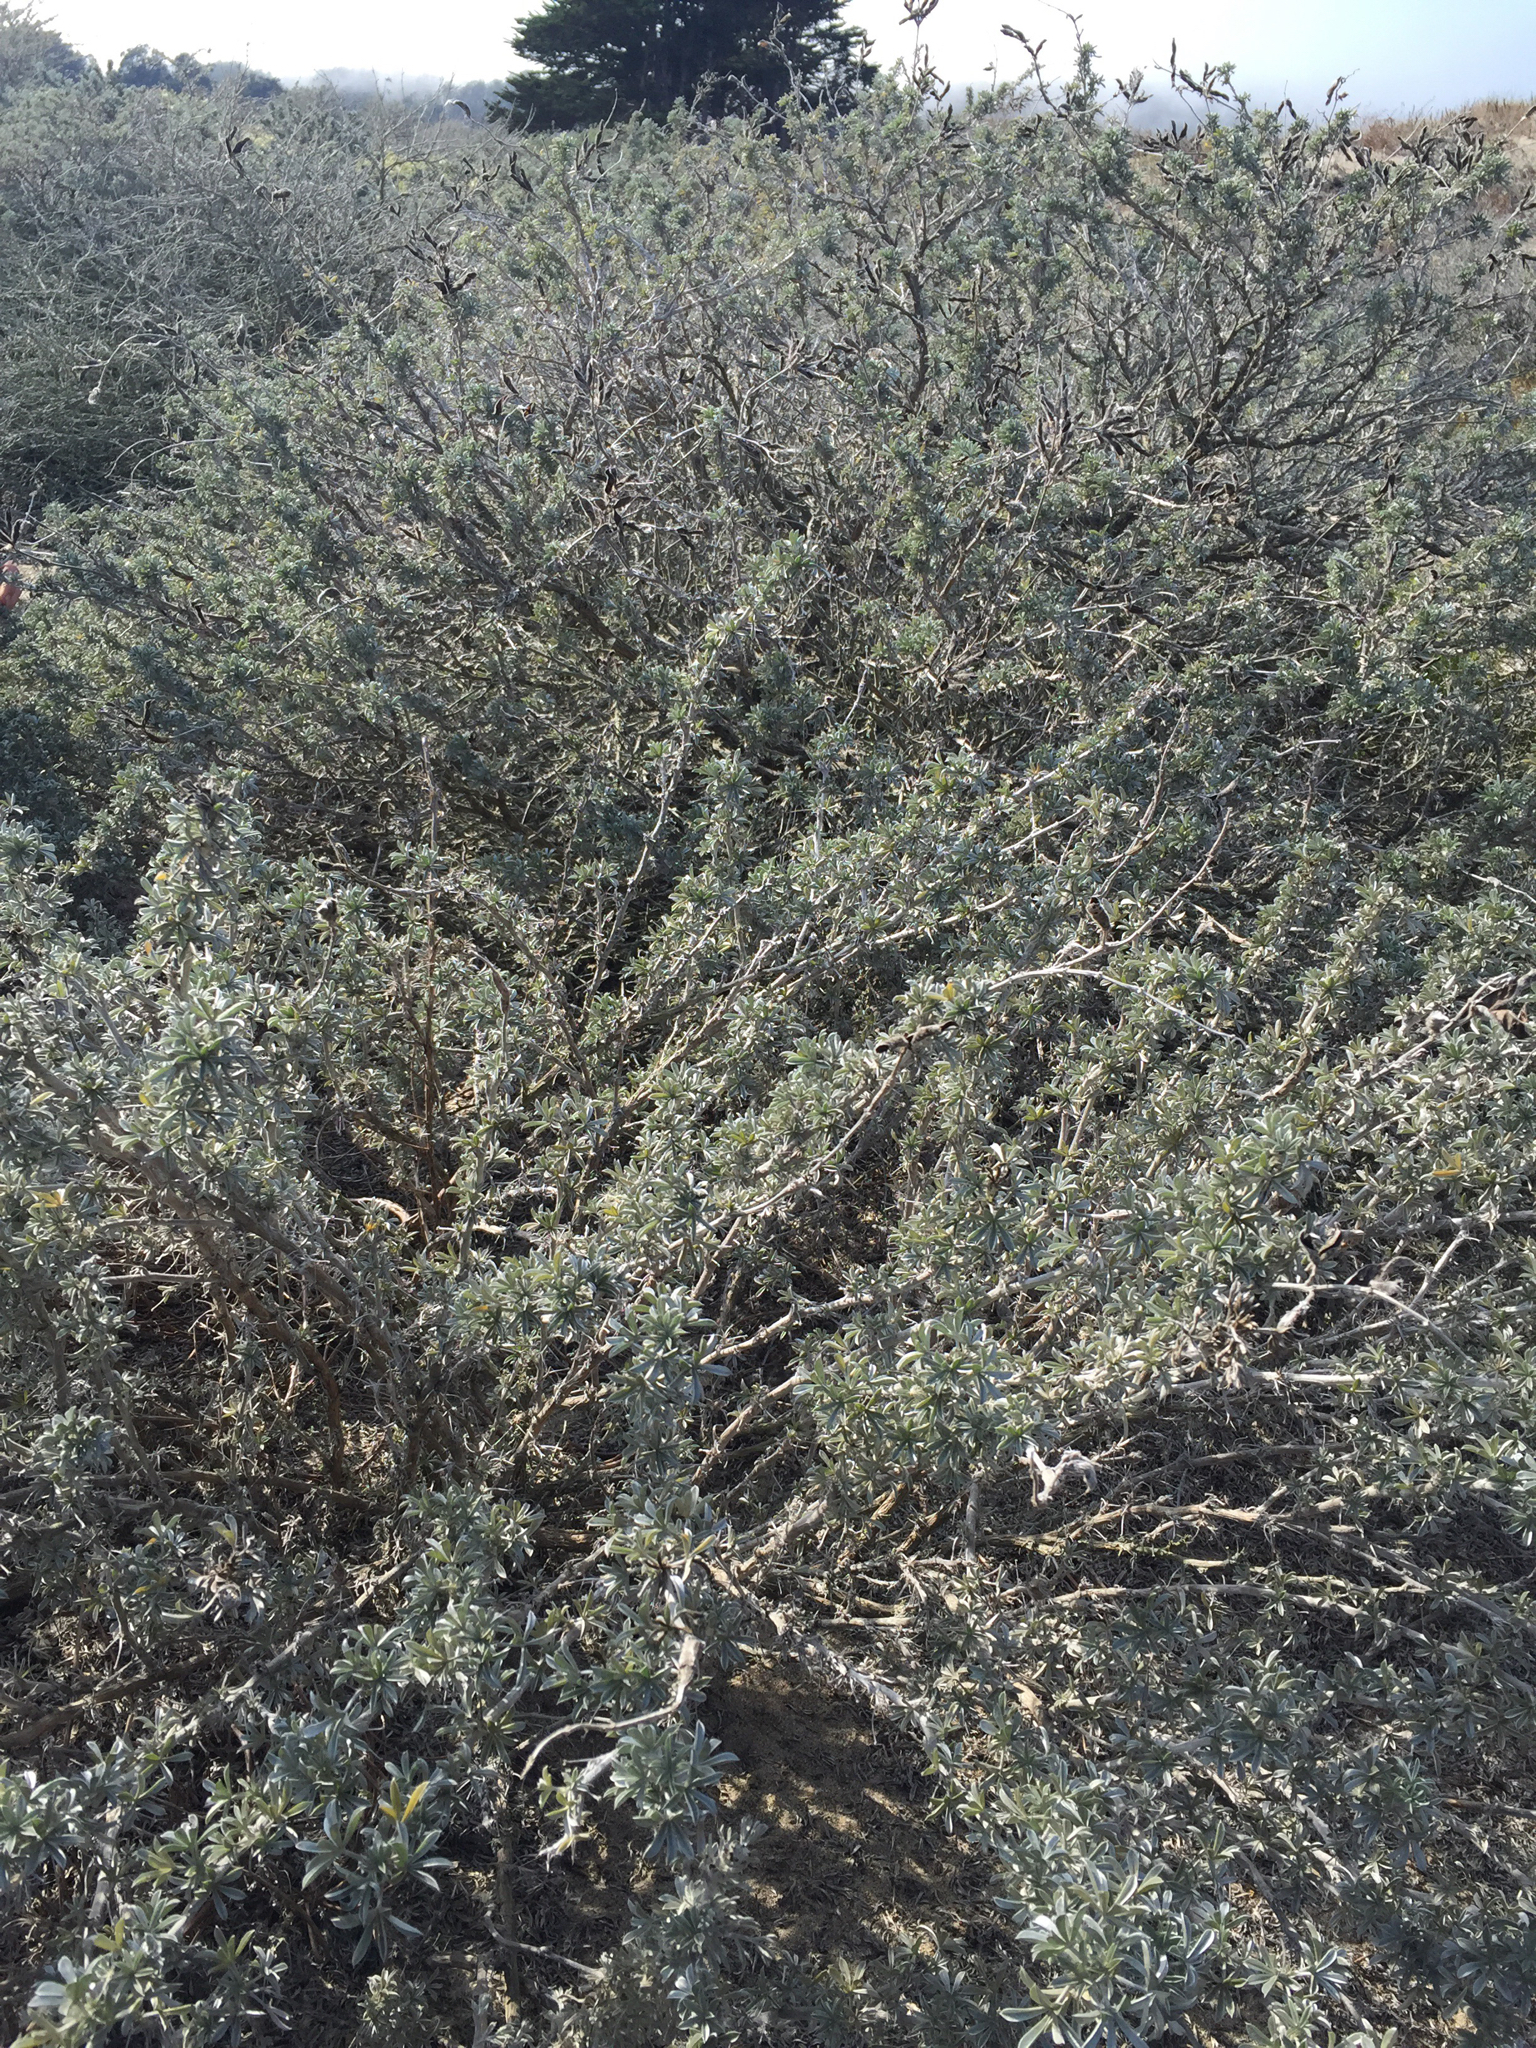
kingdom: Plantae
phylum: Tracheophyta
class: Magnoliopsida
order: Fabales
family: Fabaceae
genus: Lupinus
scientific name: Lupinus chamissonis
